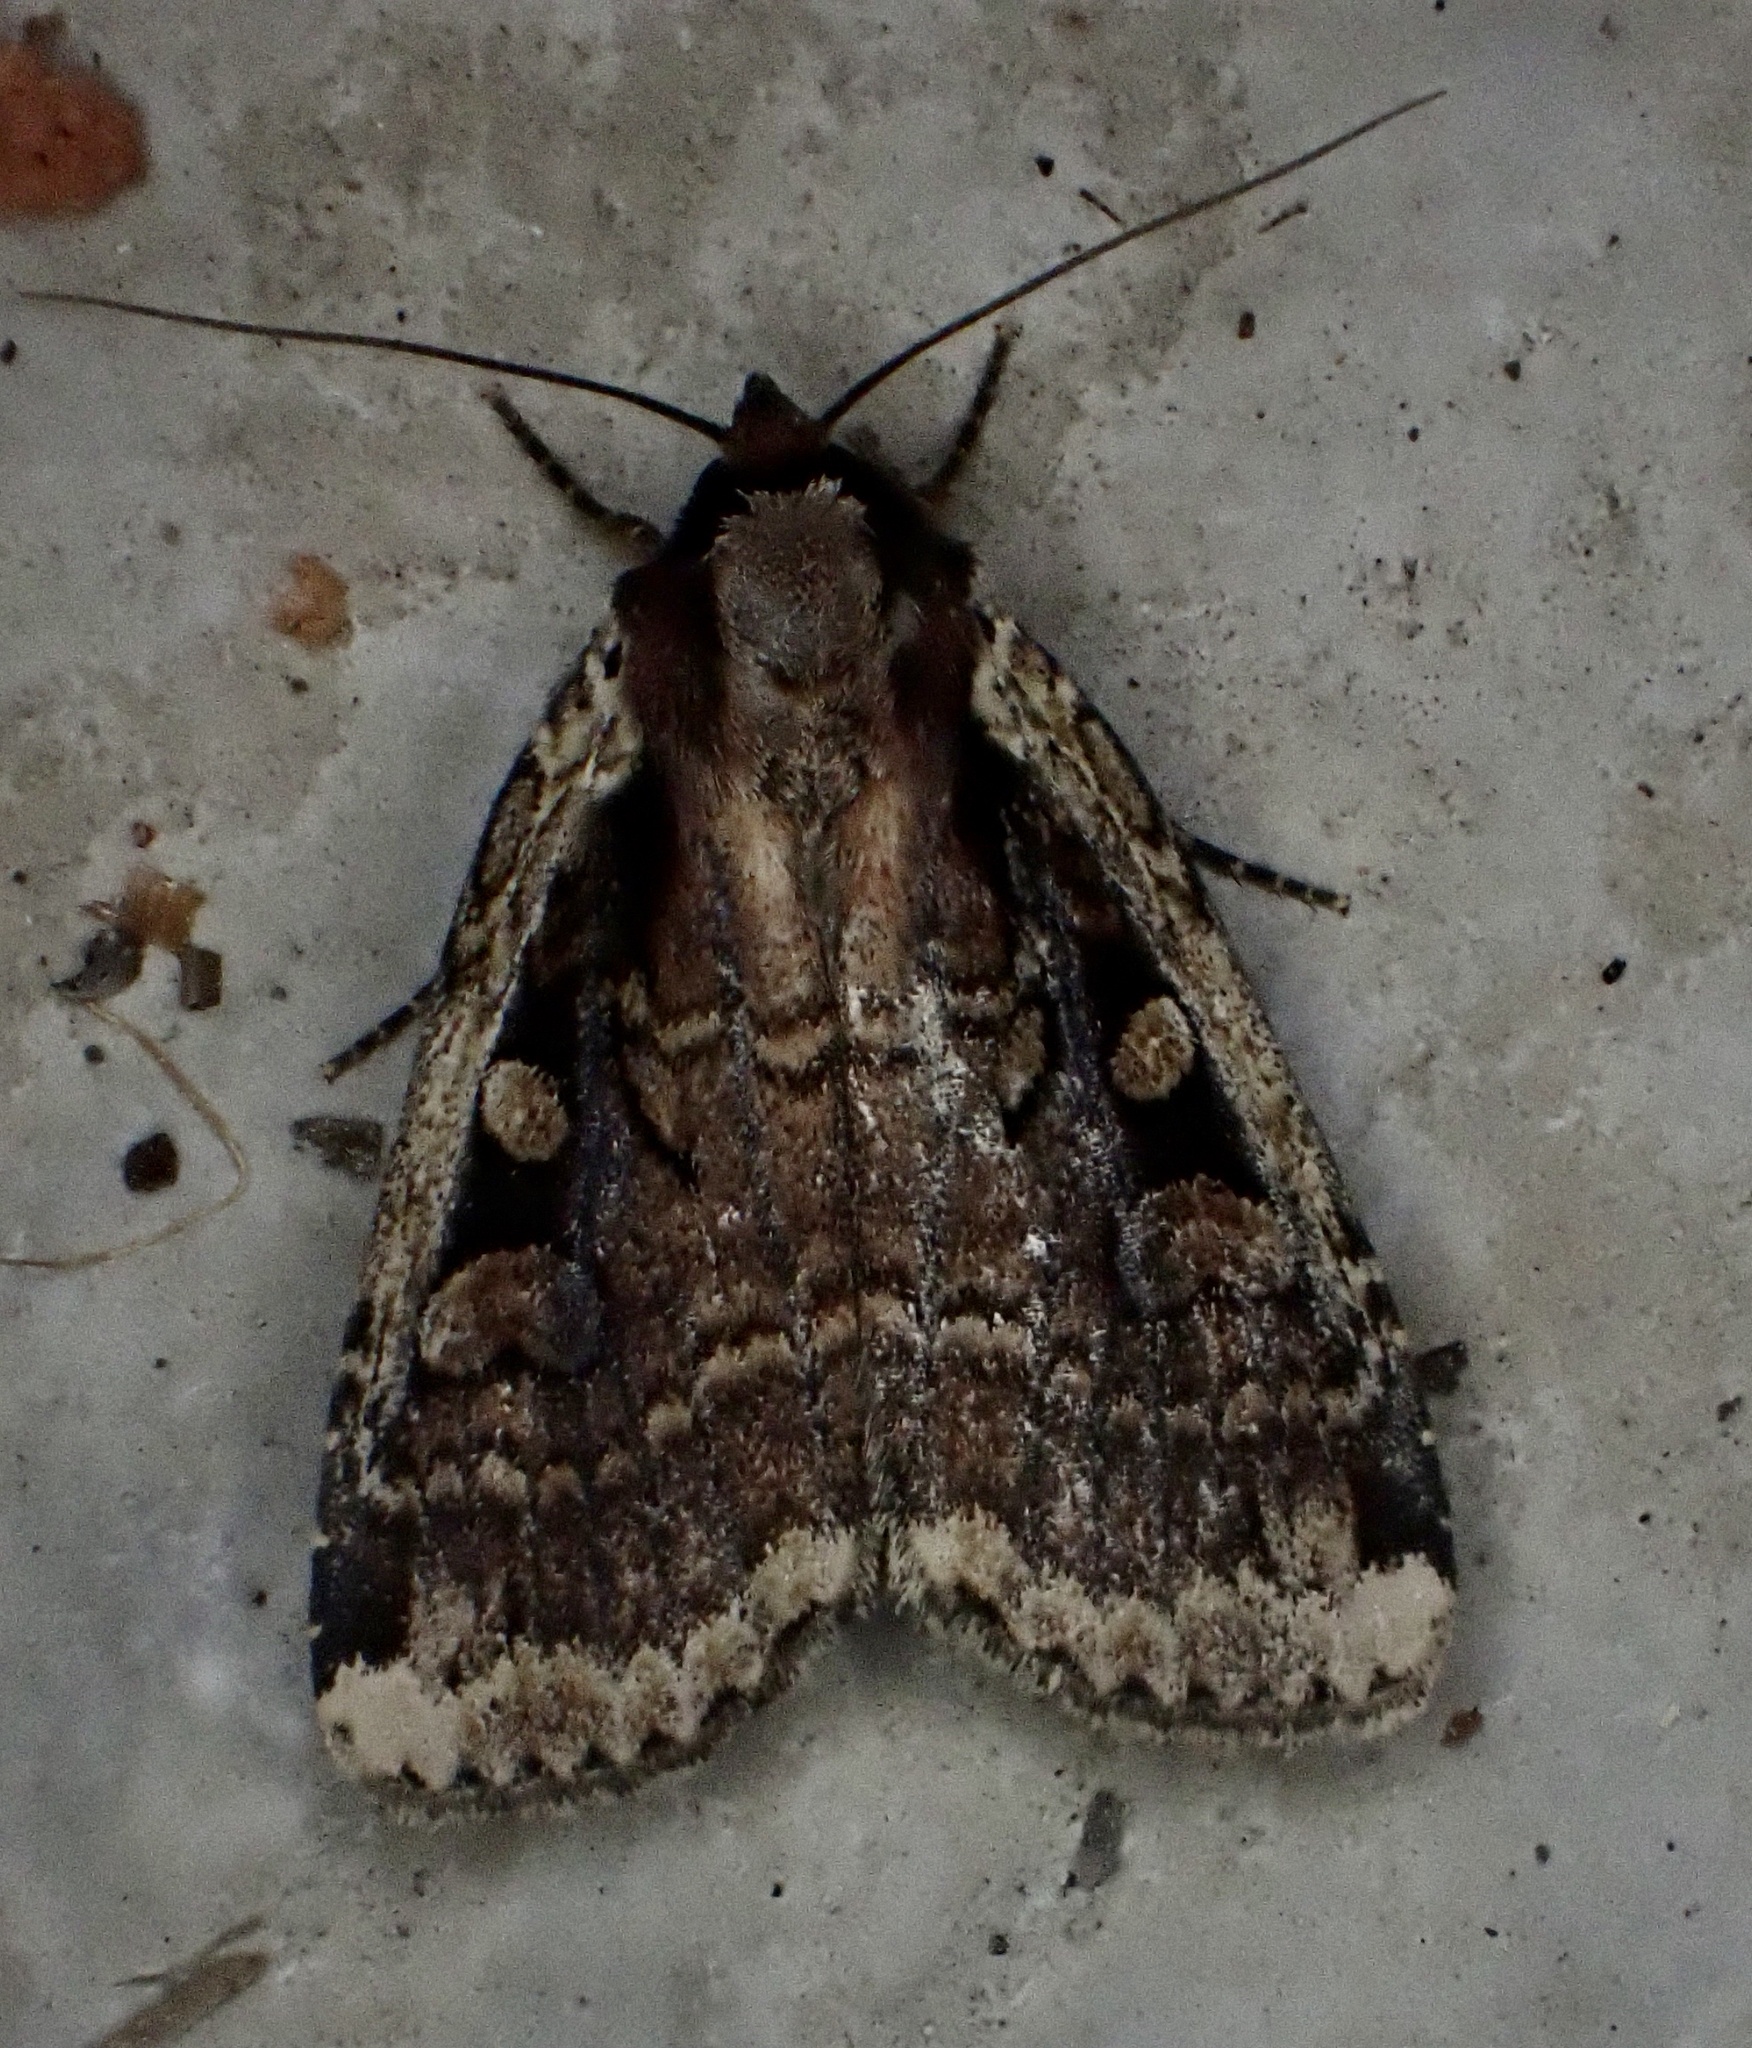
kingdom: Animalia
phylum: Arthropoda
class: Insecta
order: Lepidoptera
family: Noctuidae
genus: Eueretagrotis
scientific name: Eueretagrotis sigmoides
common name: Sigmoid dart
